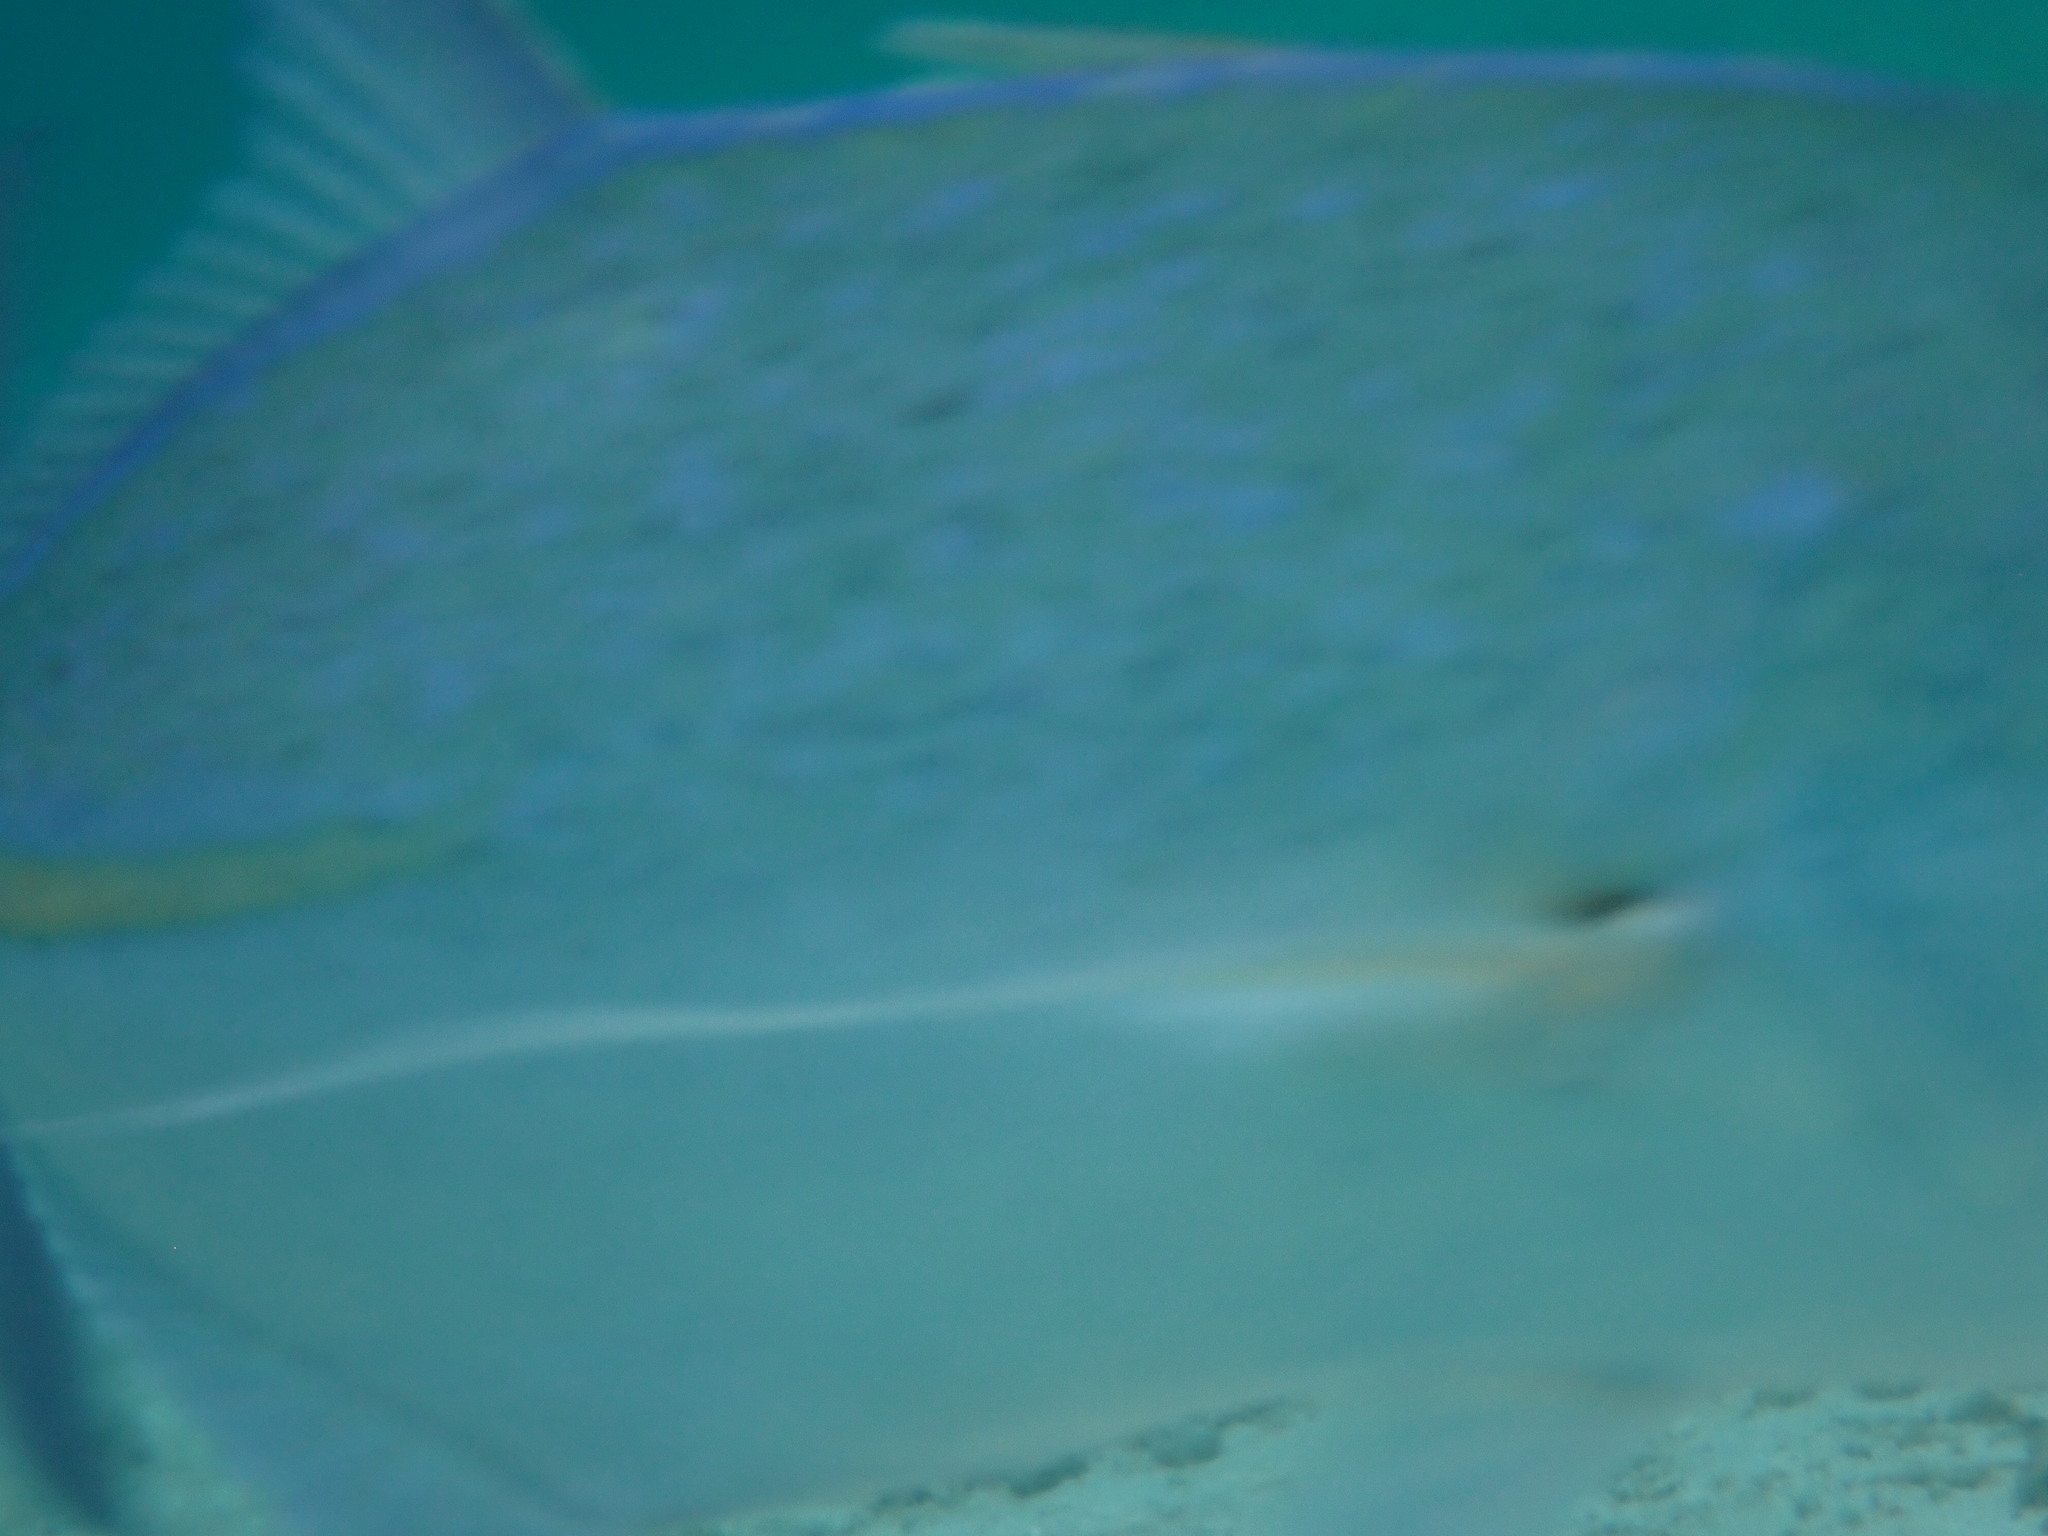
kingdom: Animalia
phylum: Chordata
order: Perciformes
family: Carangidae
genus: Caranx
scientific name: Caranx melampygus
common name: Bluefin trevally
